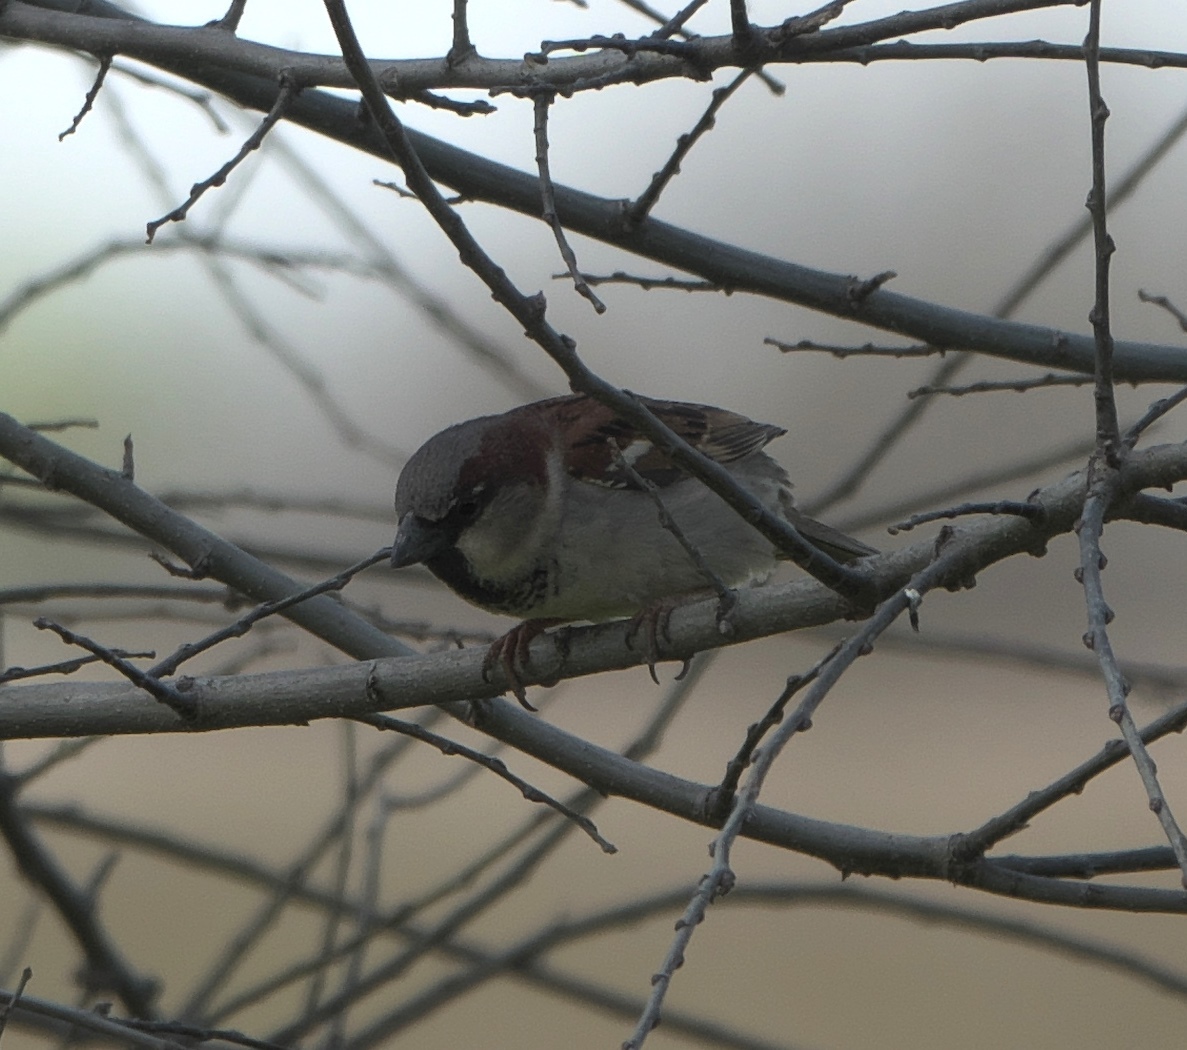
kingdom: Animalia
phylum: Chordata
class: Aves
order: Passeriformes
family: Passeridae
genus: Passer
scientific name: Passer domesticus
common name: House sparrow
